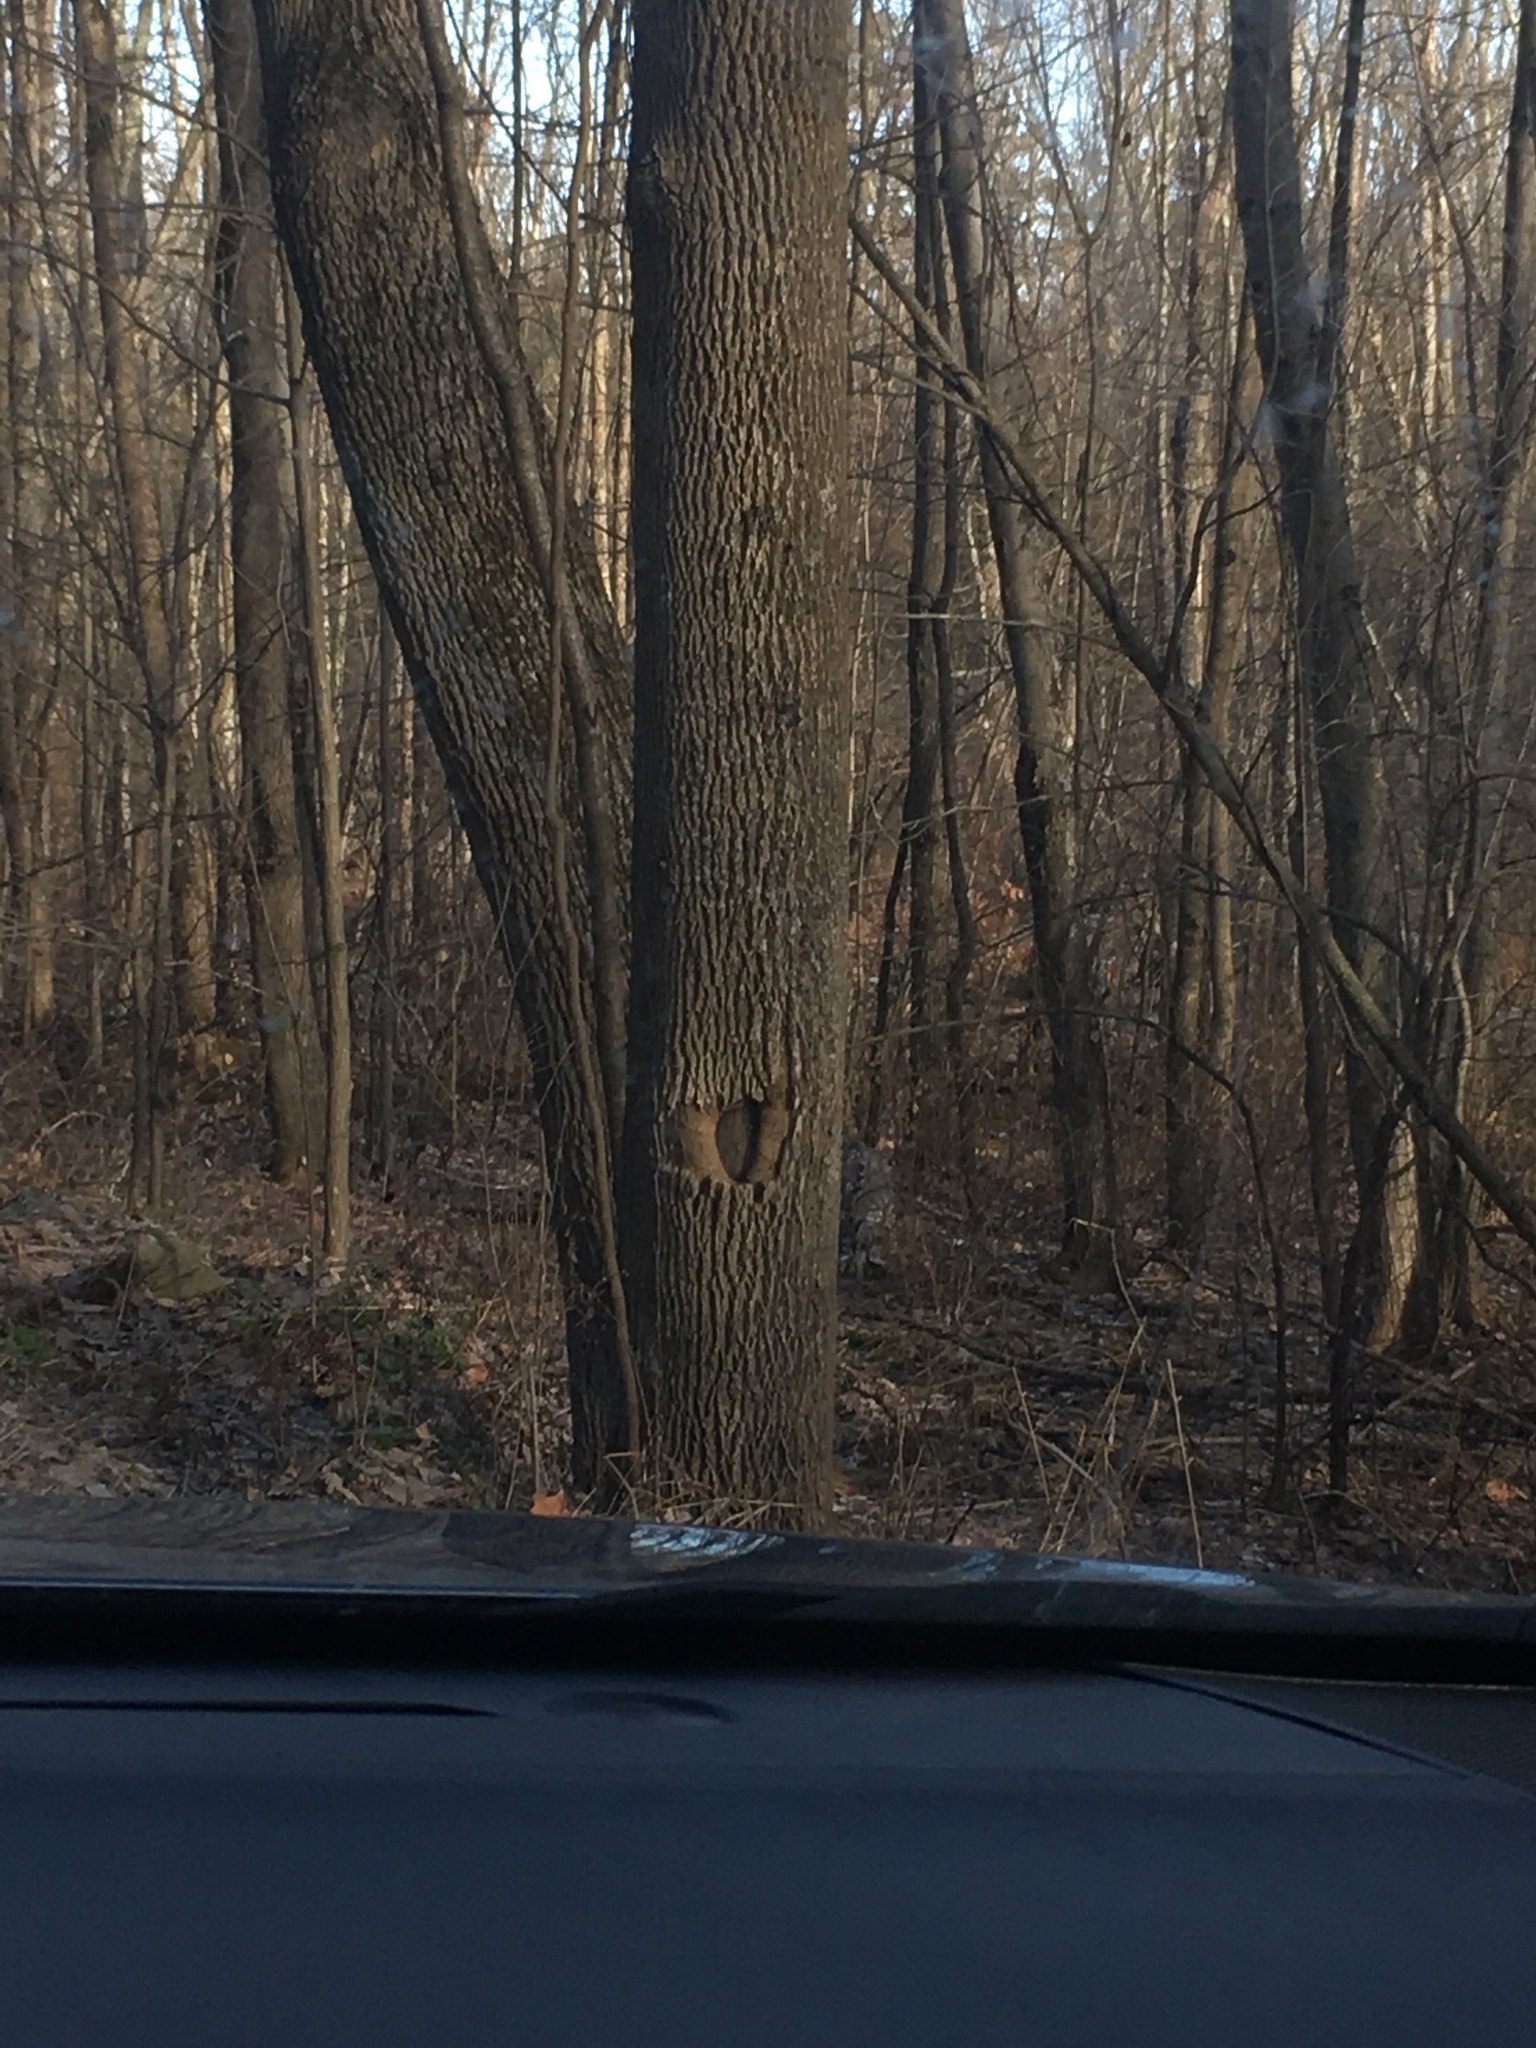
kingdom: Plantae
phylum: Tracheophyta
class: Magnoliopsida
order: Lamiales
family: Oleaceae
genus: Fraxinus
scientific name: Fraxinus americana
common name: White ash
